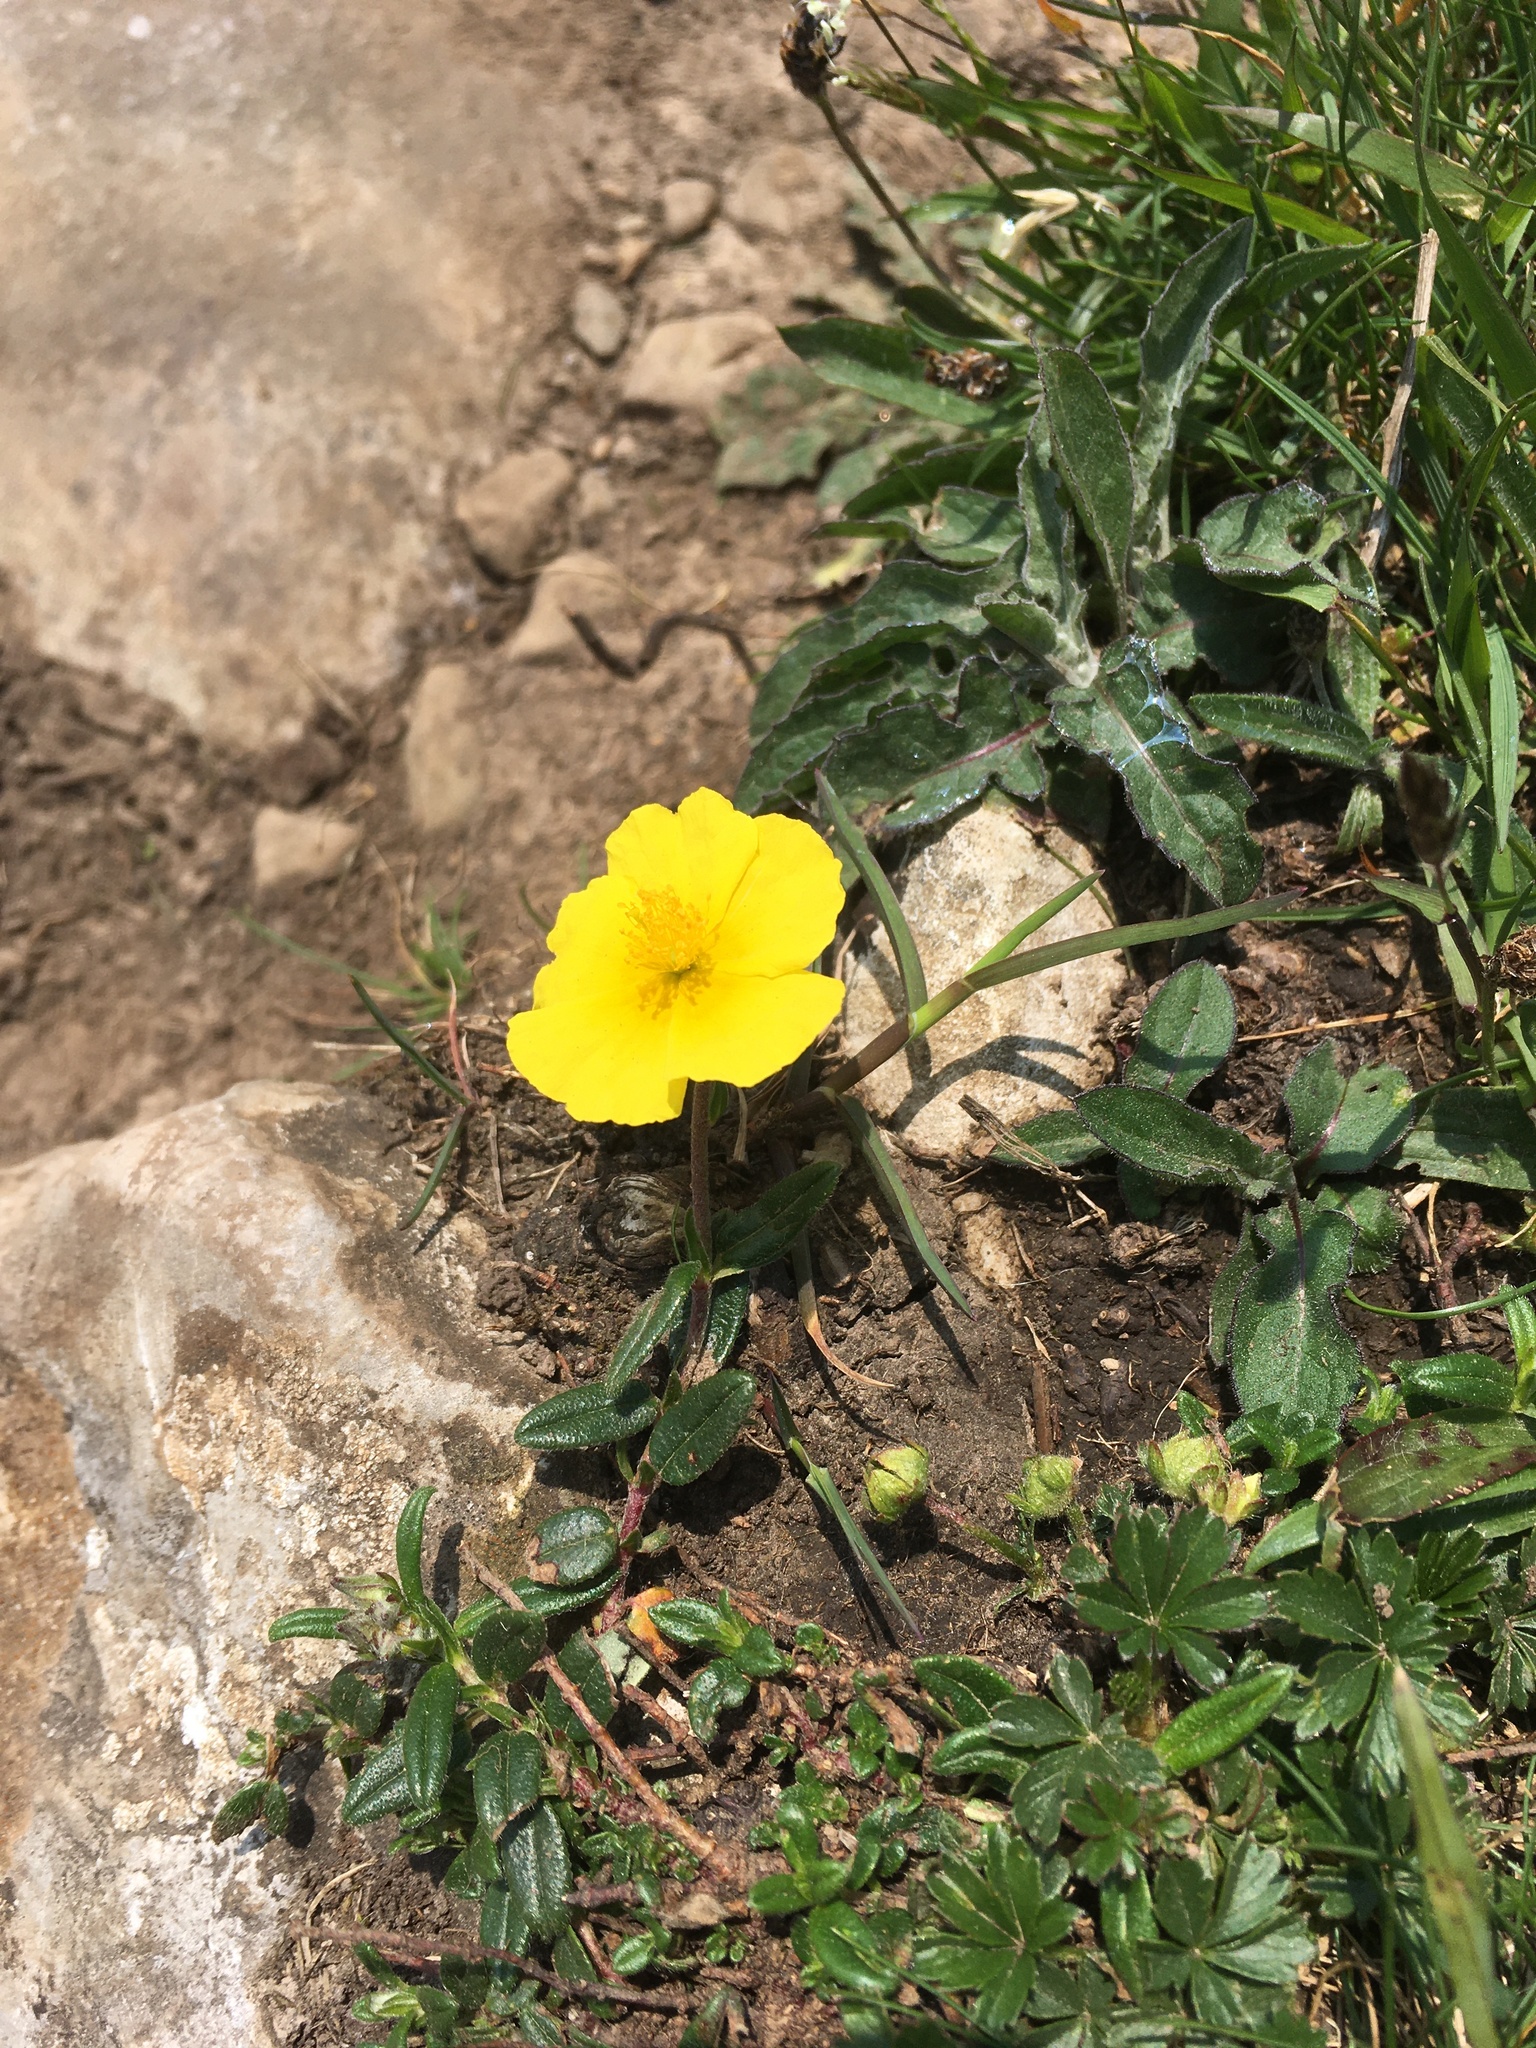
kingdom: Plantae
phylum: Tracheophyta
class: Magnoliopsida
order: Malvales
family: Cistaceae
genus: Helianthemum
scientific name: Helianthemum nummularium
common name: Common rock-rose
